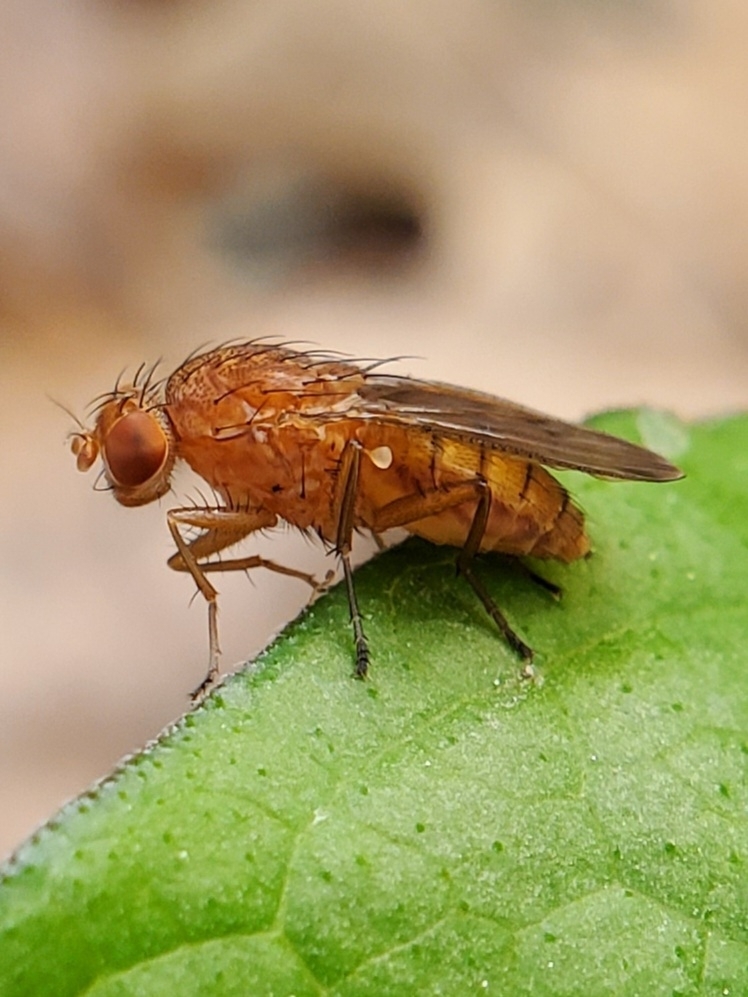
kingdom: Animalia
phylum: Arthropoda
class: Insecta
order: Diptera
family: Heleomyzidae
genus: Suillia
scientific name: Suillia quinquepunctata
